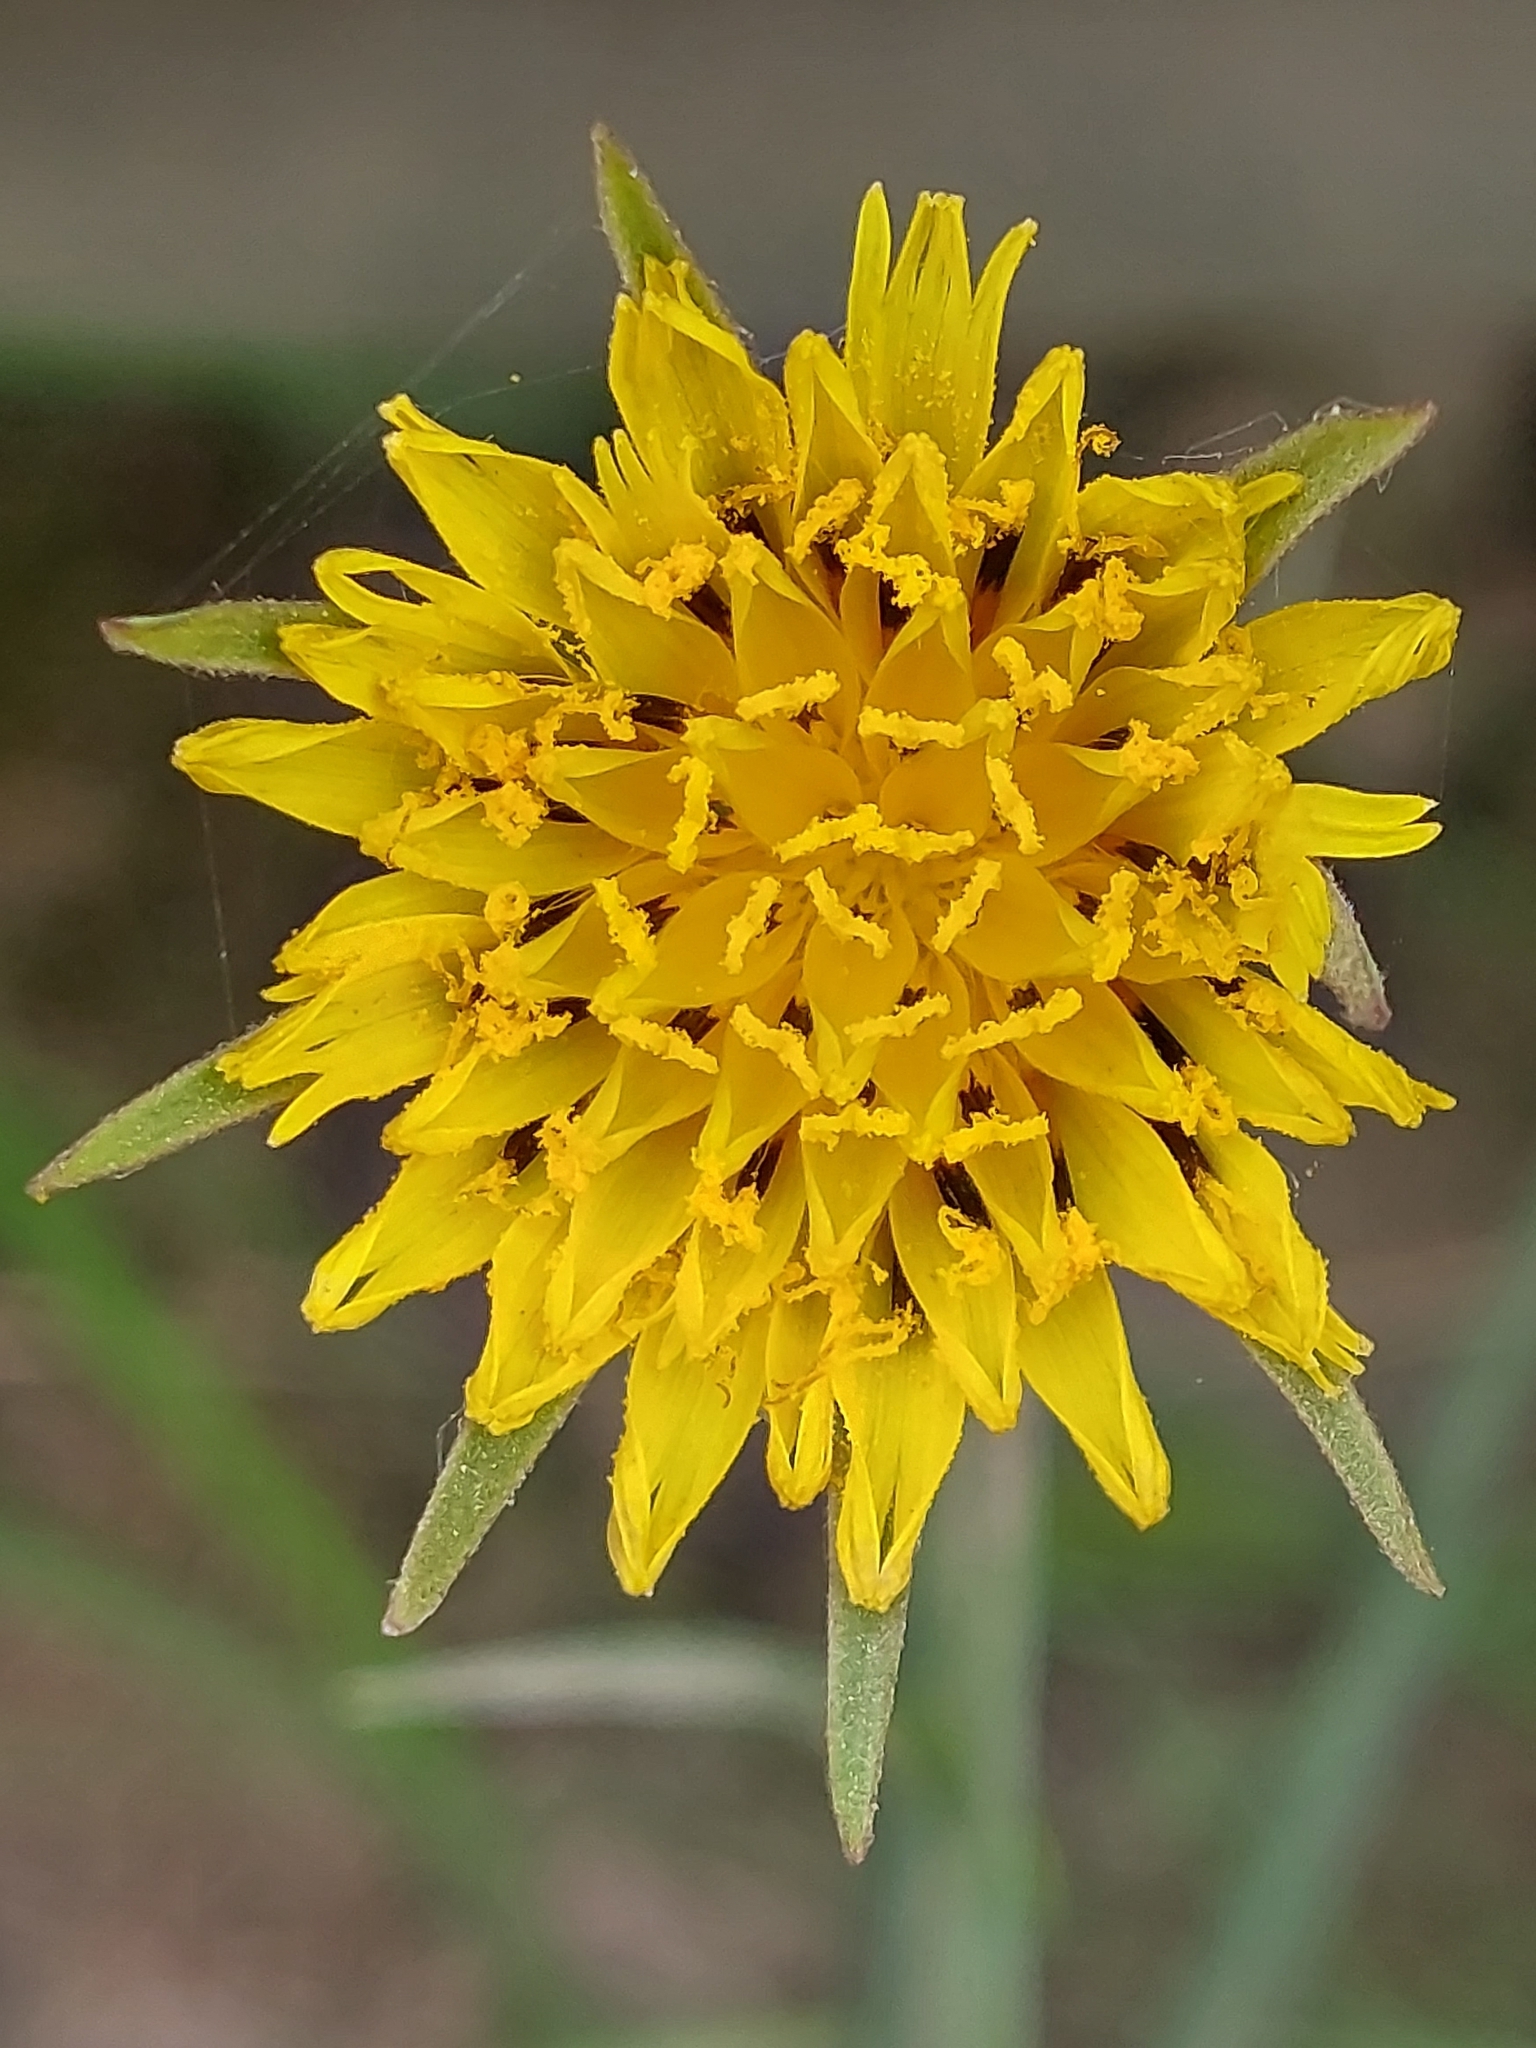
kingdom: Plantae
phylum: Tracheophyta
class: Magnoliopsida
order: Asterales
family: Asteraceae
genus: Tragopogon
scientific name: Tragopogon pratensis
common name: Goat's-beard
